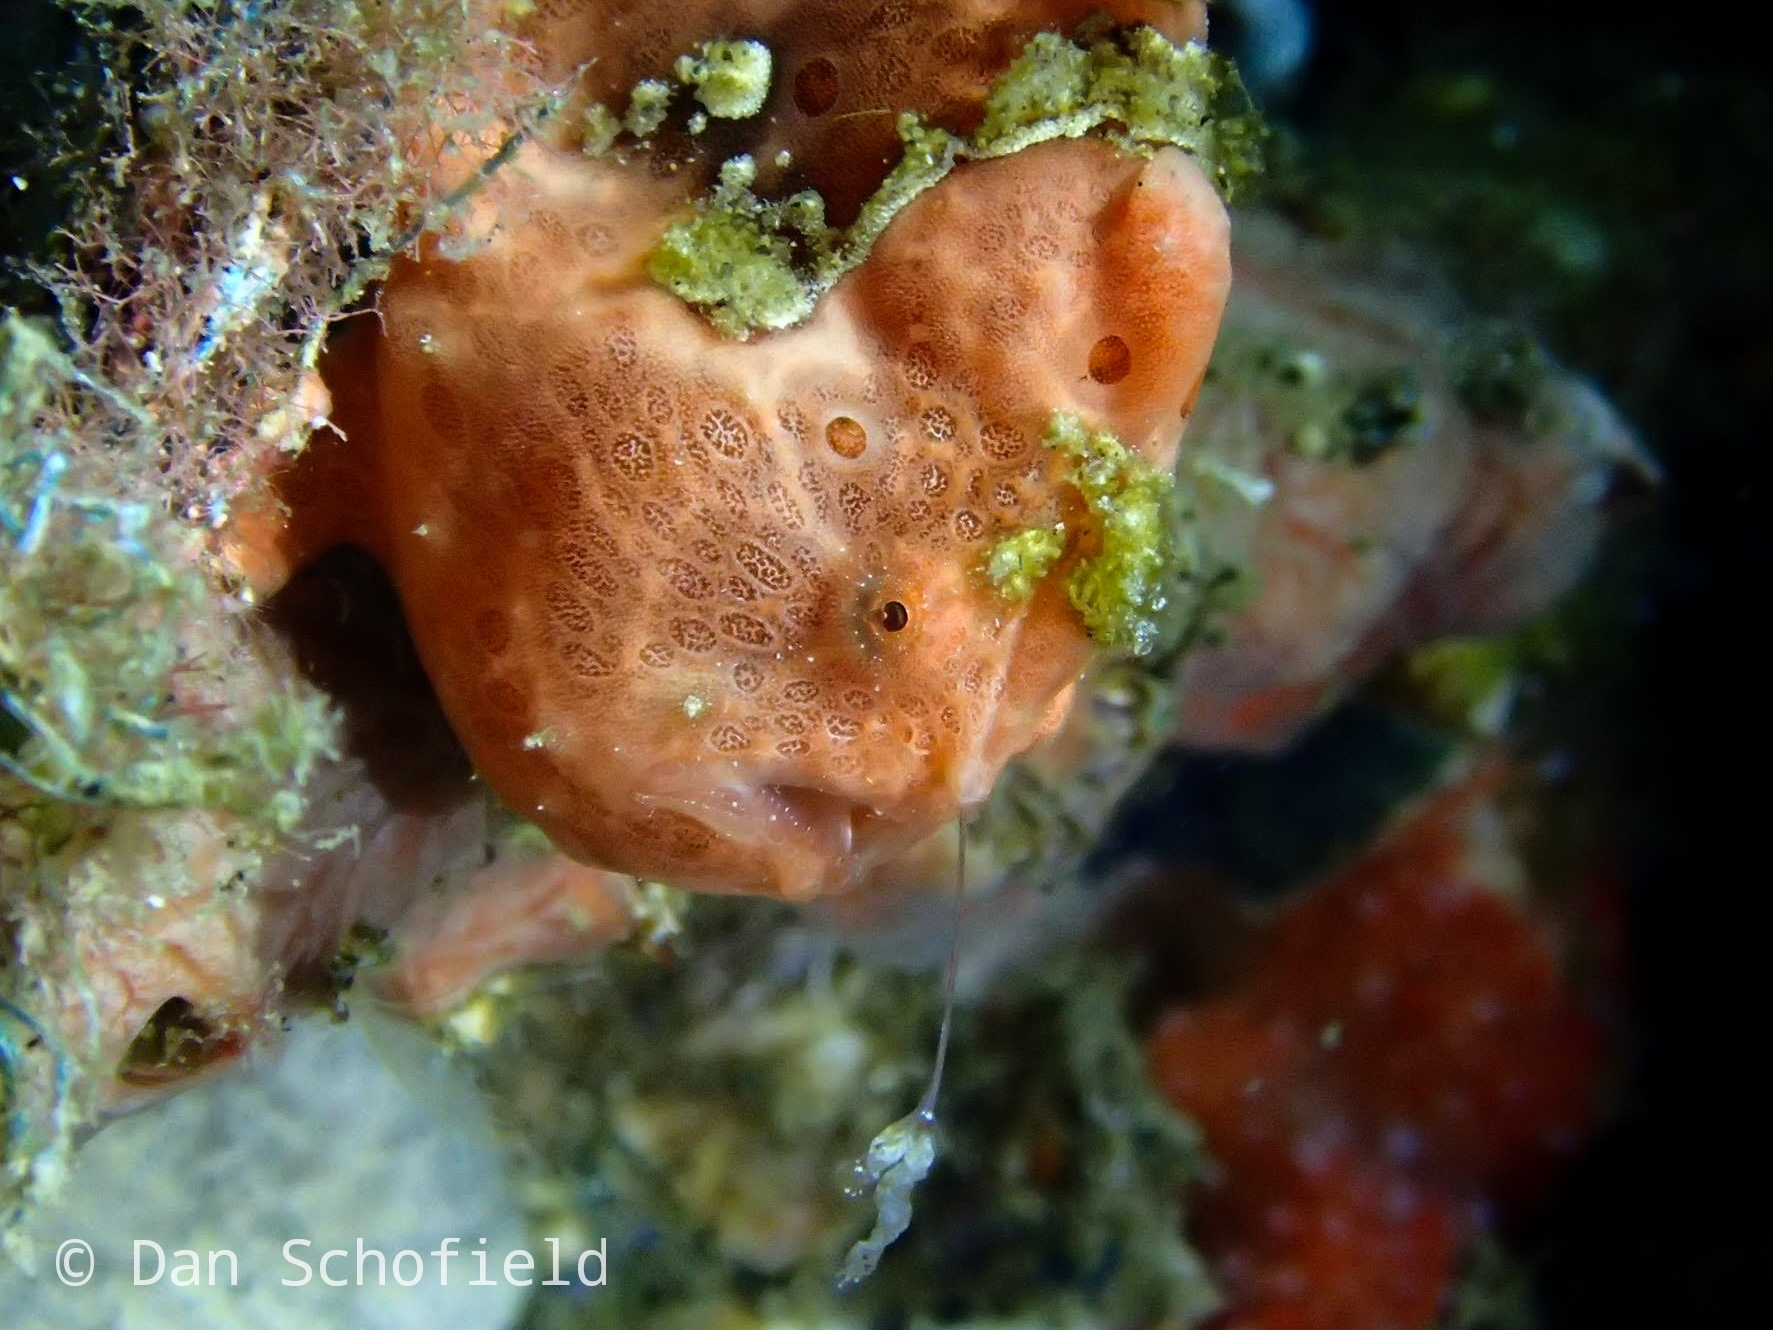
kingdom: Animalia
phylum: Chordata
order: Lophiiformes
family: Antennariidae
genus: Antennarius
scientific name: Antennarius pictus
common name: Painted frogfish
